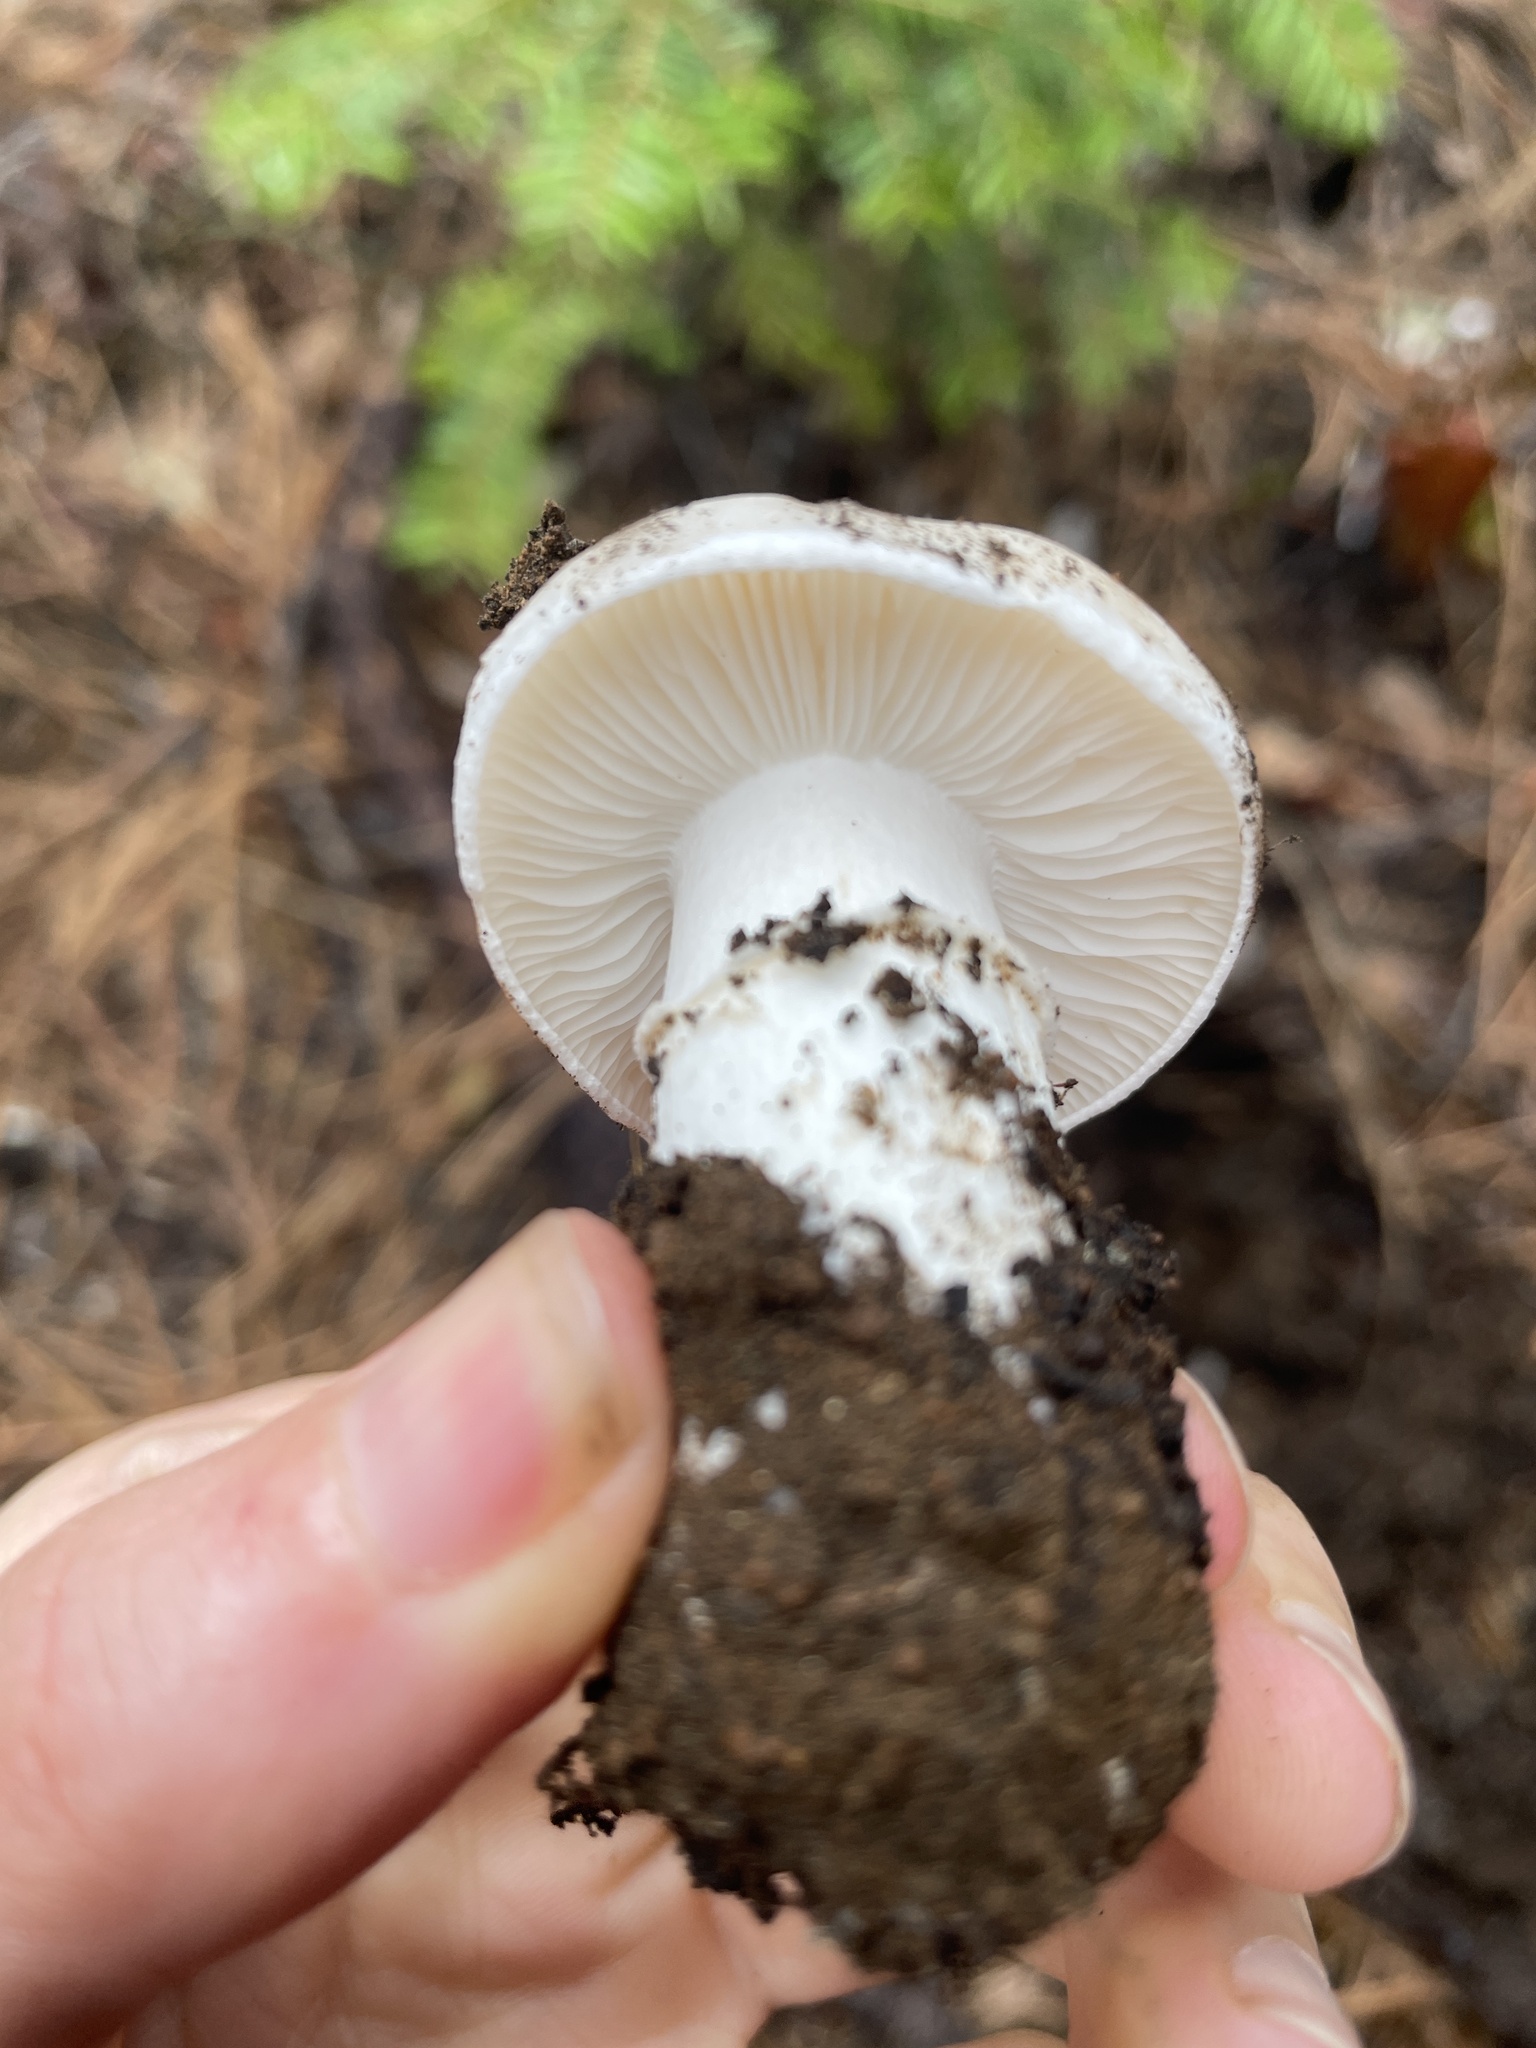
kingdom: Fungi
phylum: Basidiomycota
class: Agaricomycetes
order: Agaricales
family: Tricholomataceae
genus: Tricholoma
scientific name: Tricholoma vernaticum
